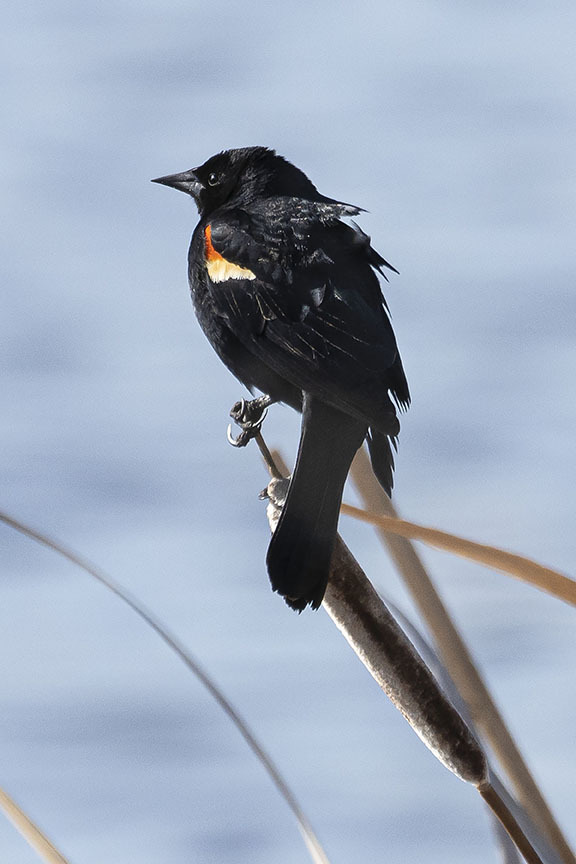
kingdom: Animalia
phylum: Chordata
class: Aves
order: Passeriformes
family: Icteridae
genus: Agelaius
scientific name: Agelaius phoeniceus
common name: Red-winged blackbird
